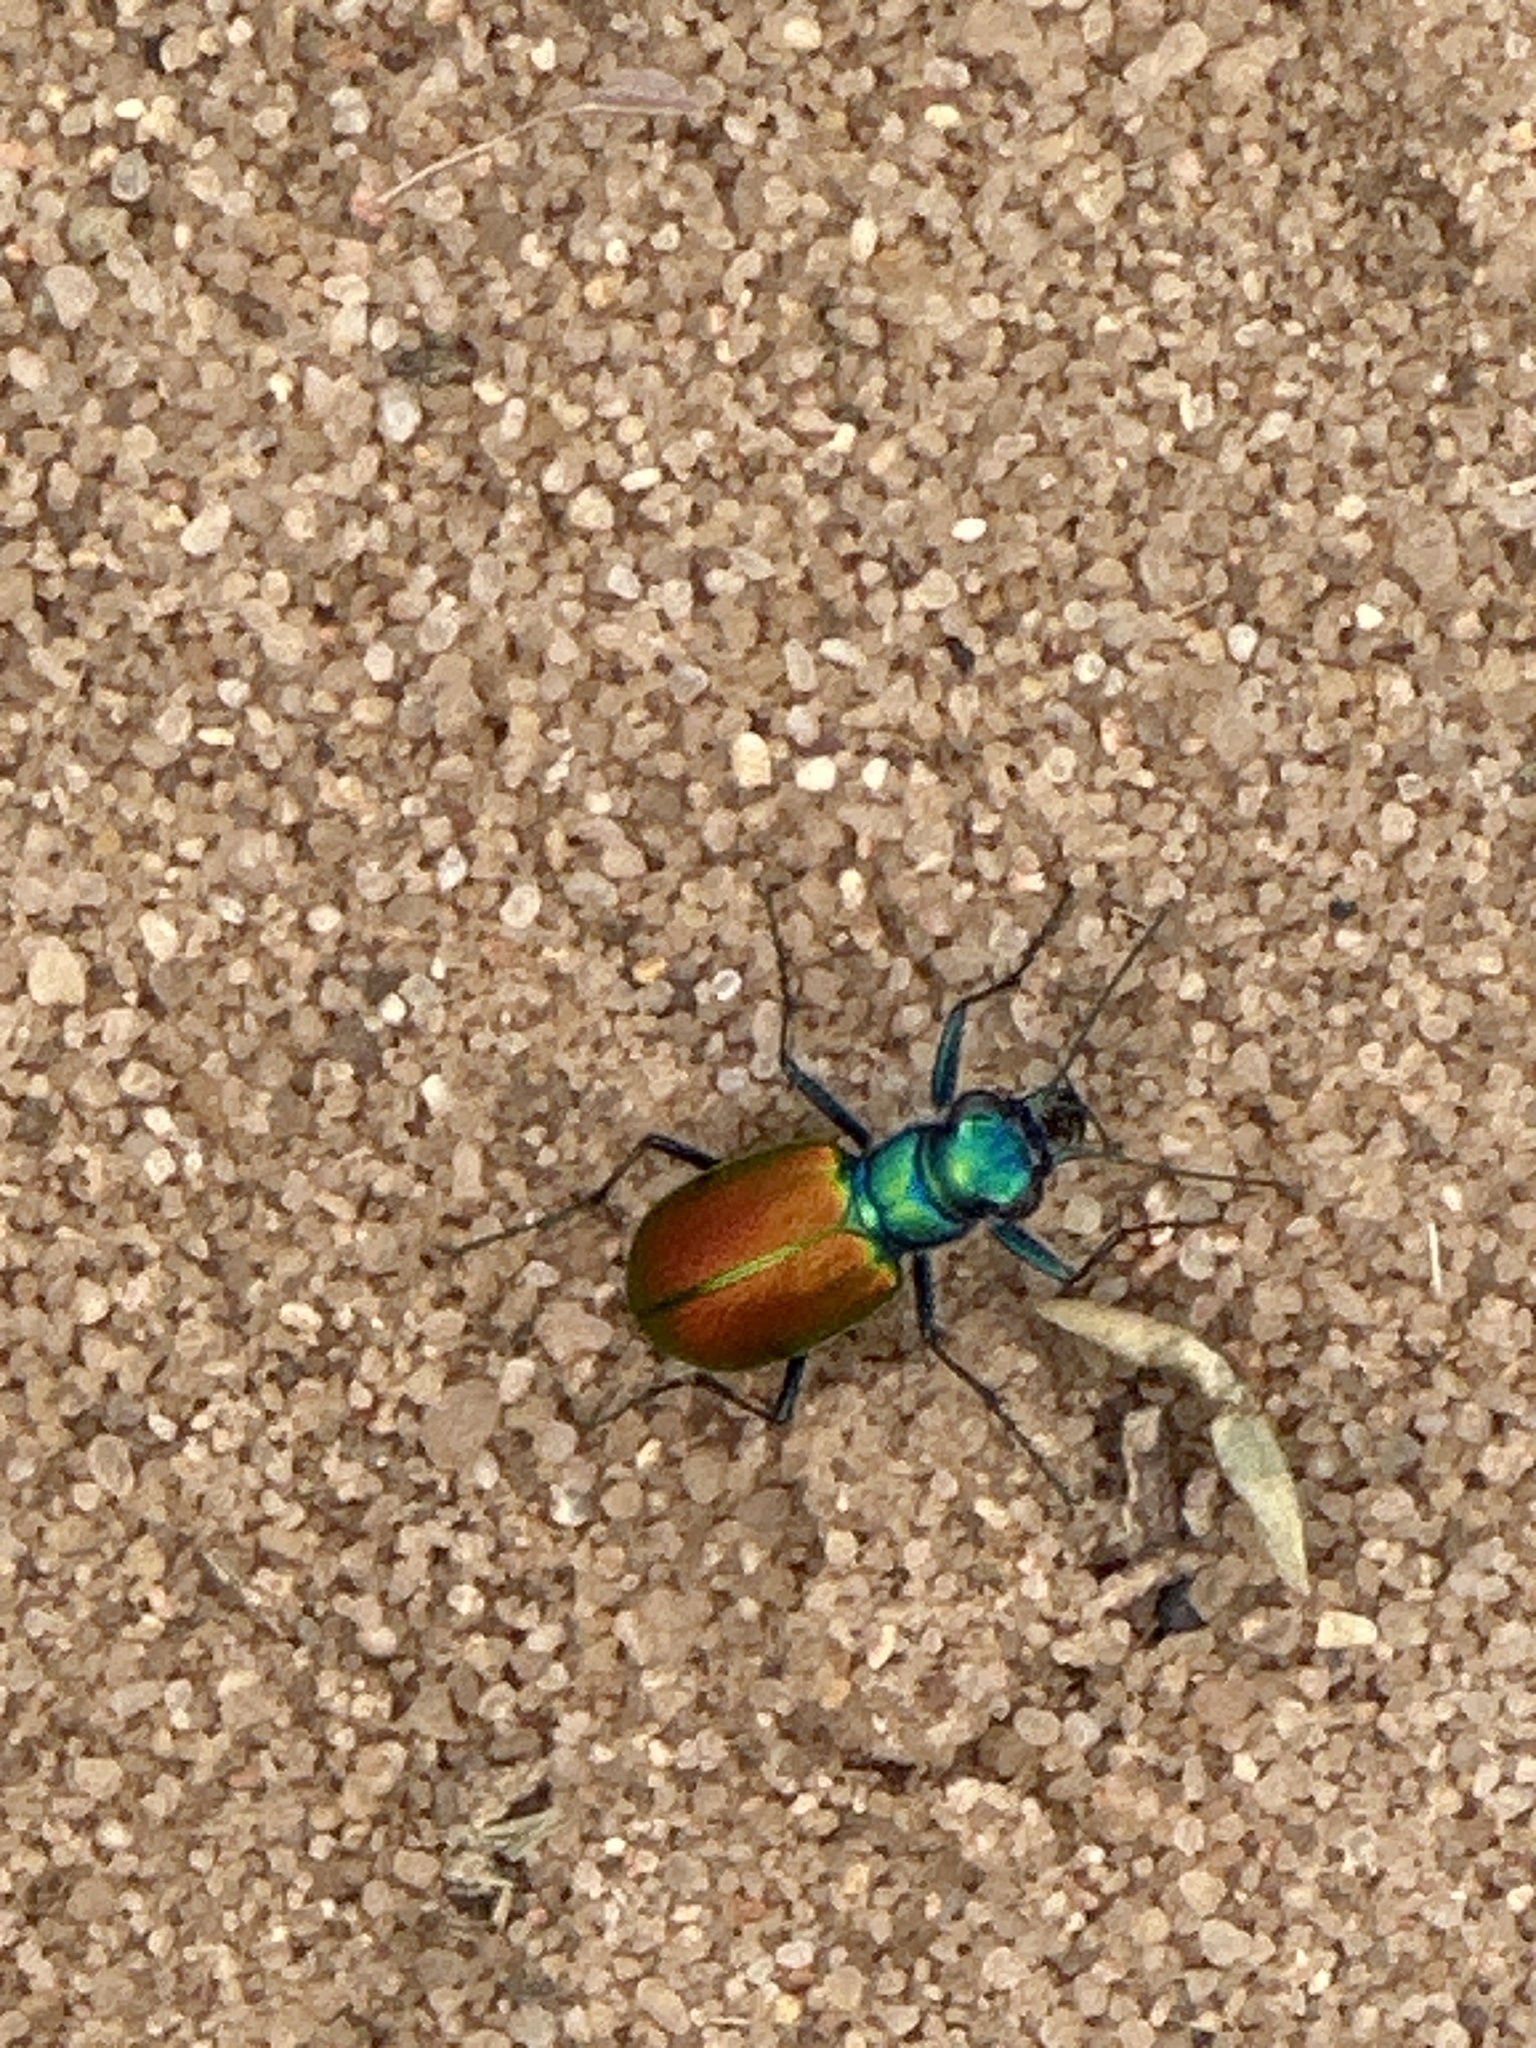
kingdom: Animalia
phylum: Arthropoda
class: Insecta
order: Coleoptera
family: Carabidae
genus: Cicindela
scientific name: Cicindela scutellaris
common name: Festive tiger beetle
